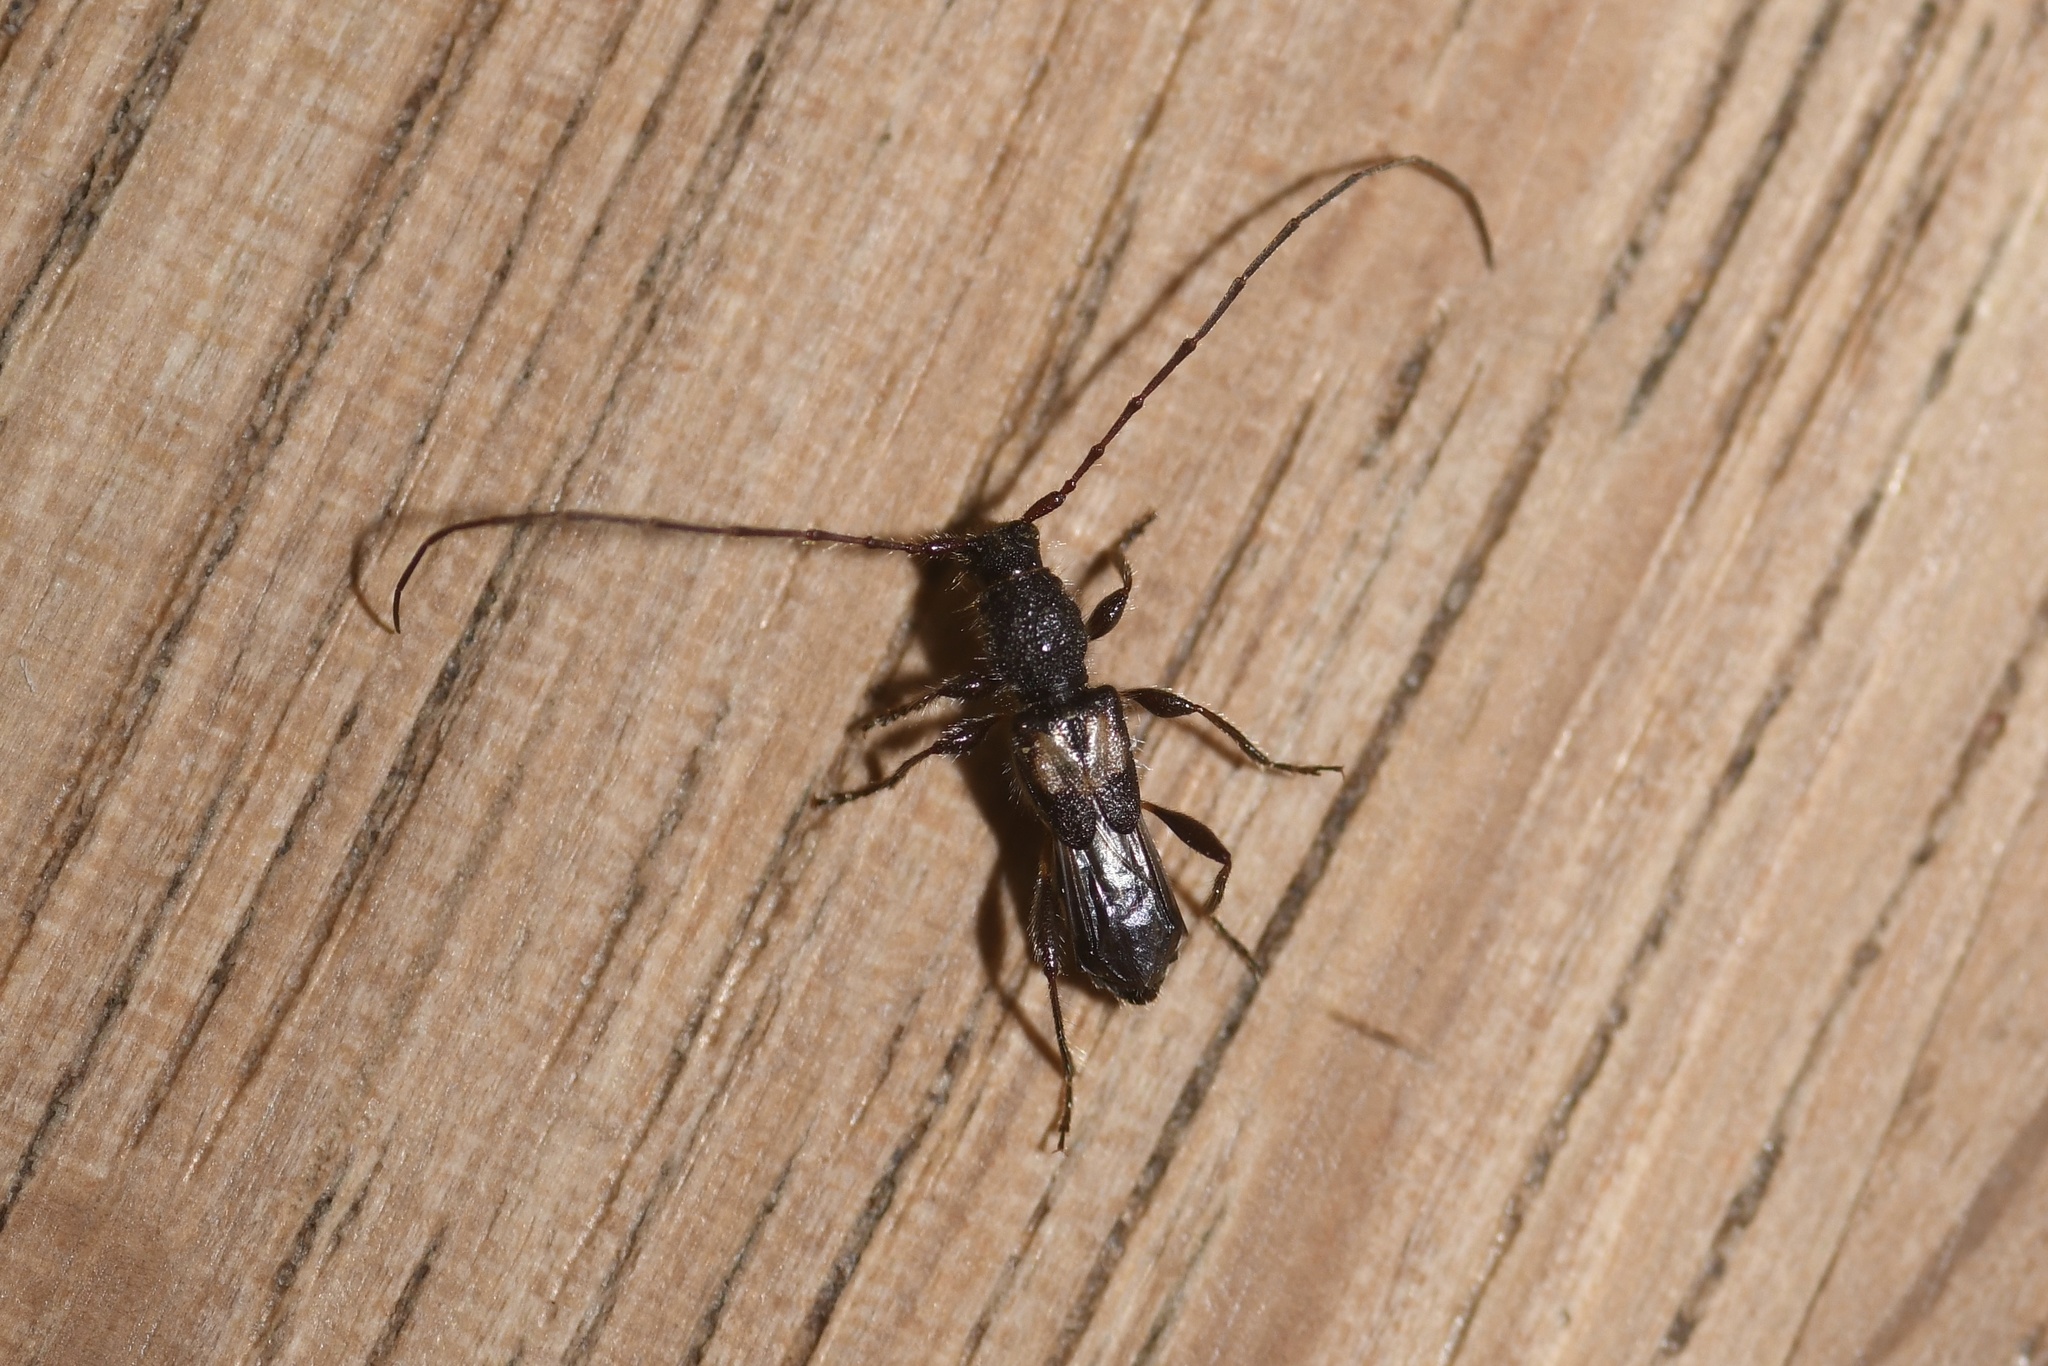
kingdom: Animalia
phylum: Arthropoda
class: Insecta
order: Coleoptera
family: Cerambycidae
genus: Molorchus
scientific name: Molorchus bimaculatus
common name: Bimaculate longhorn beetle
